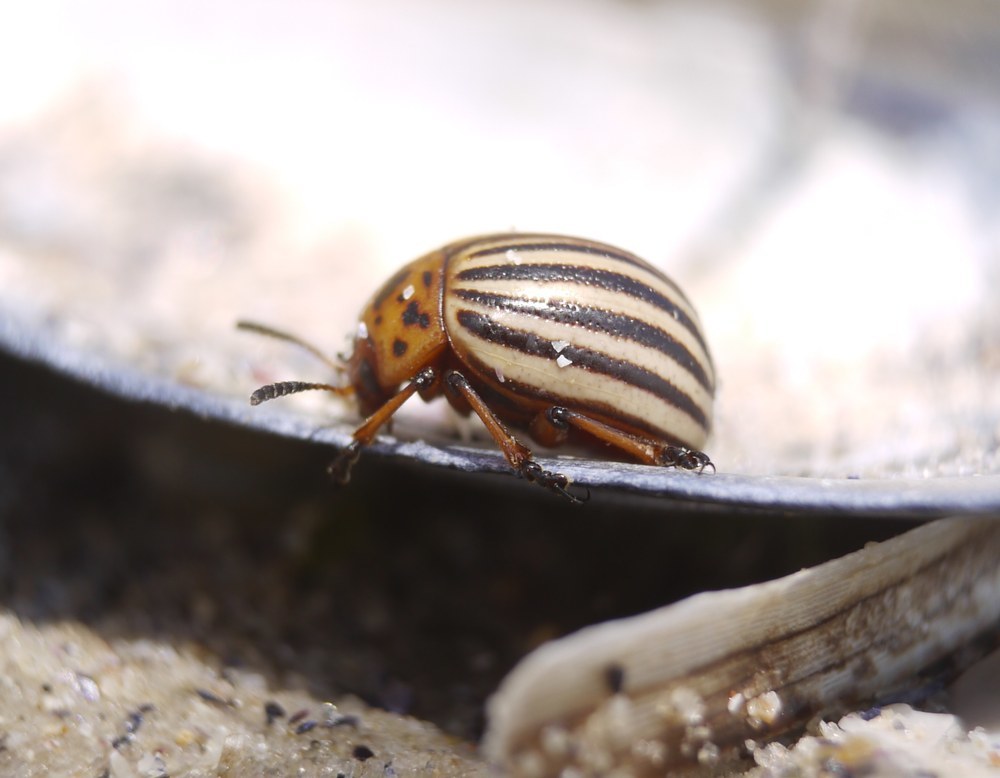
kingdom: Animalia
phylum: Arthropoda
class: Insecta
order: Coleoptera
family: Chrysomelidae
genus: Leptinotarsa
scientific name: Leptinotarsa decemlineata
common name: Colorado potato beetle
